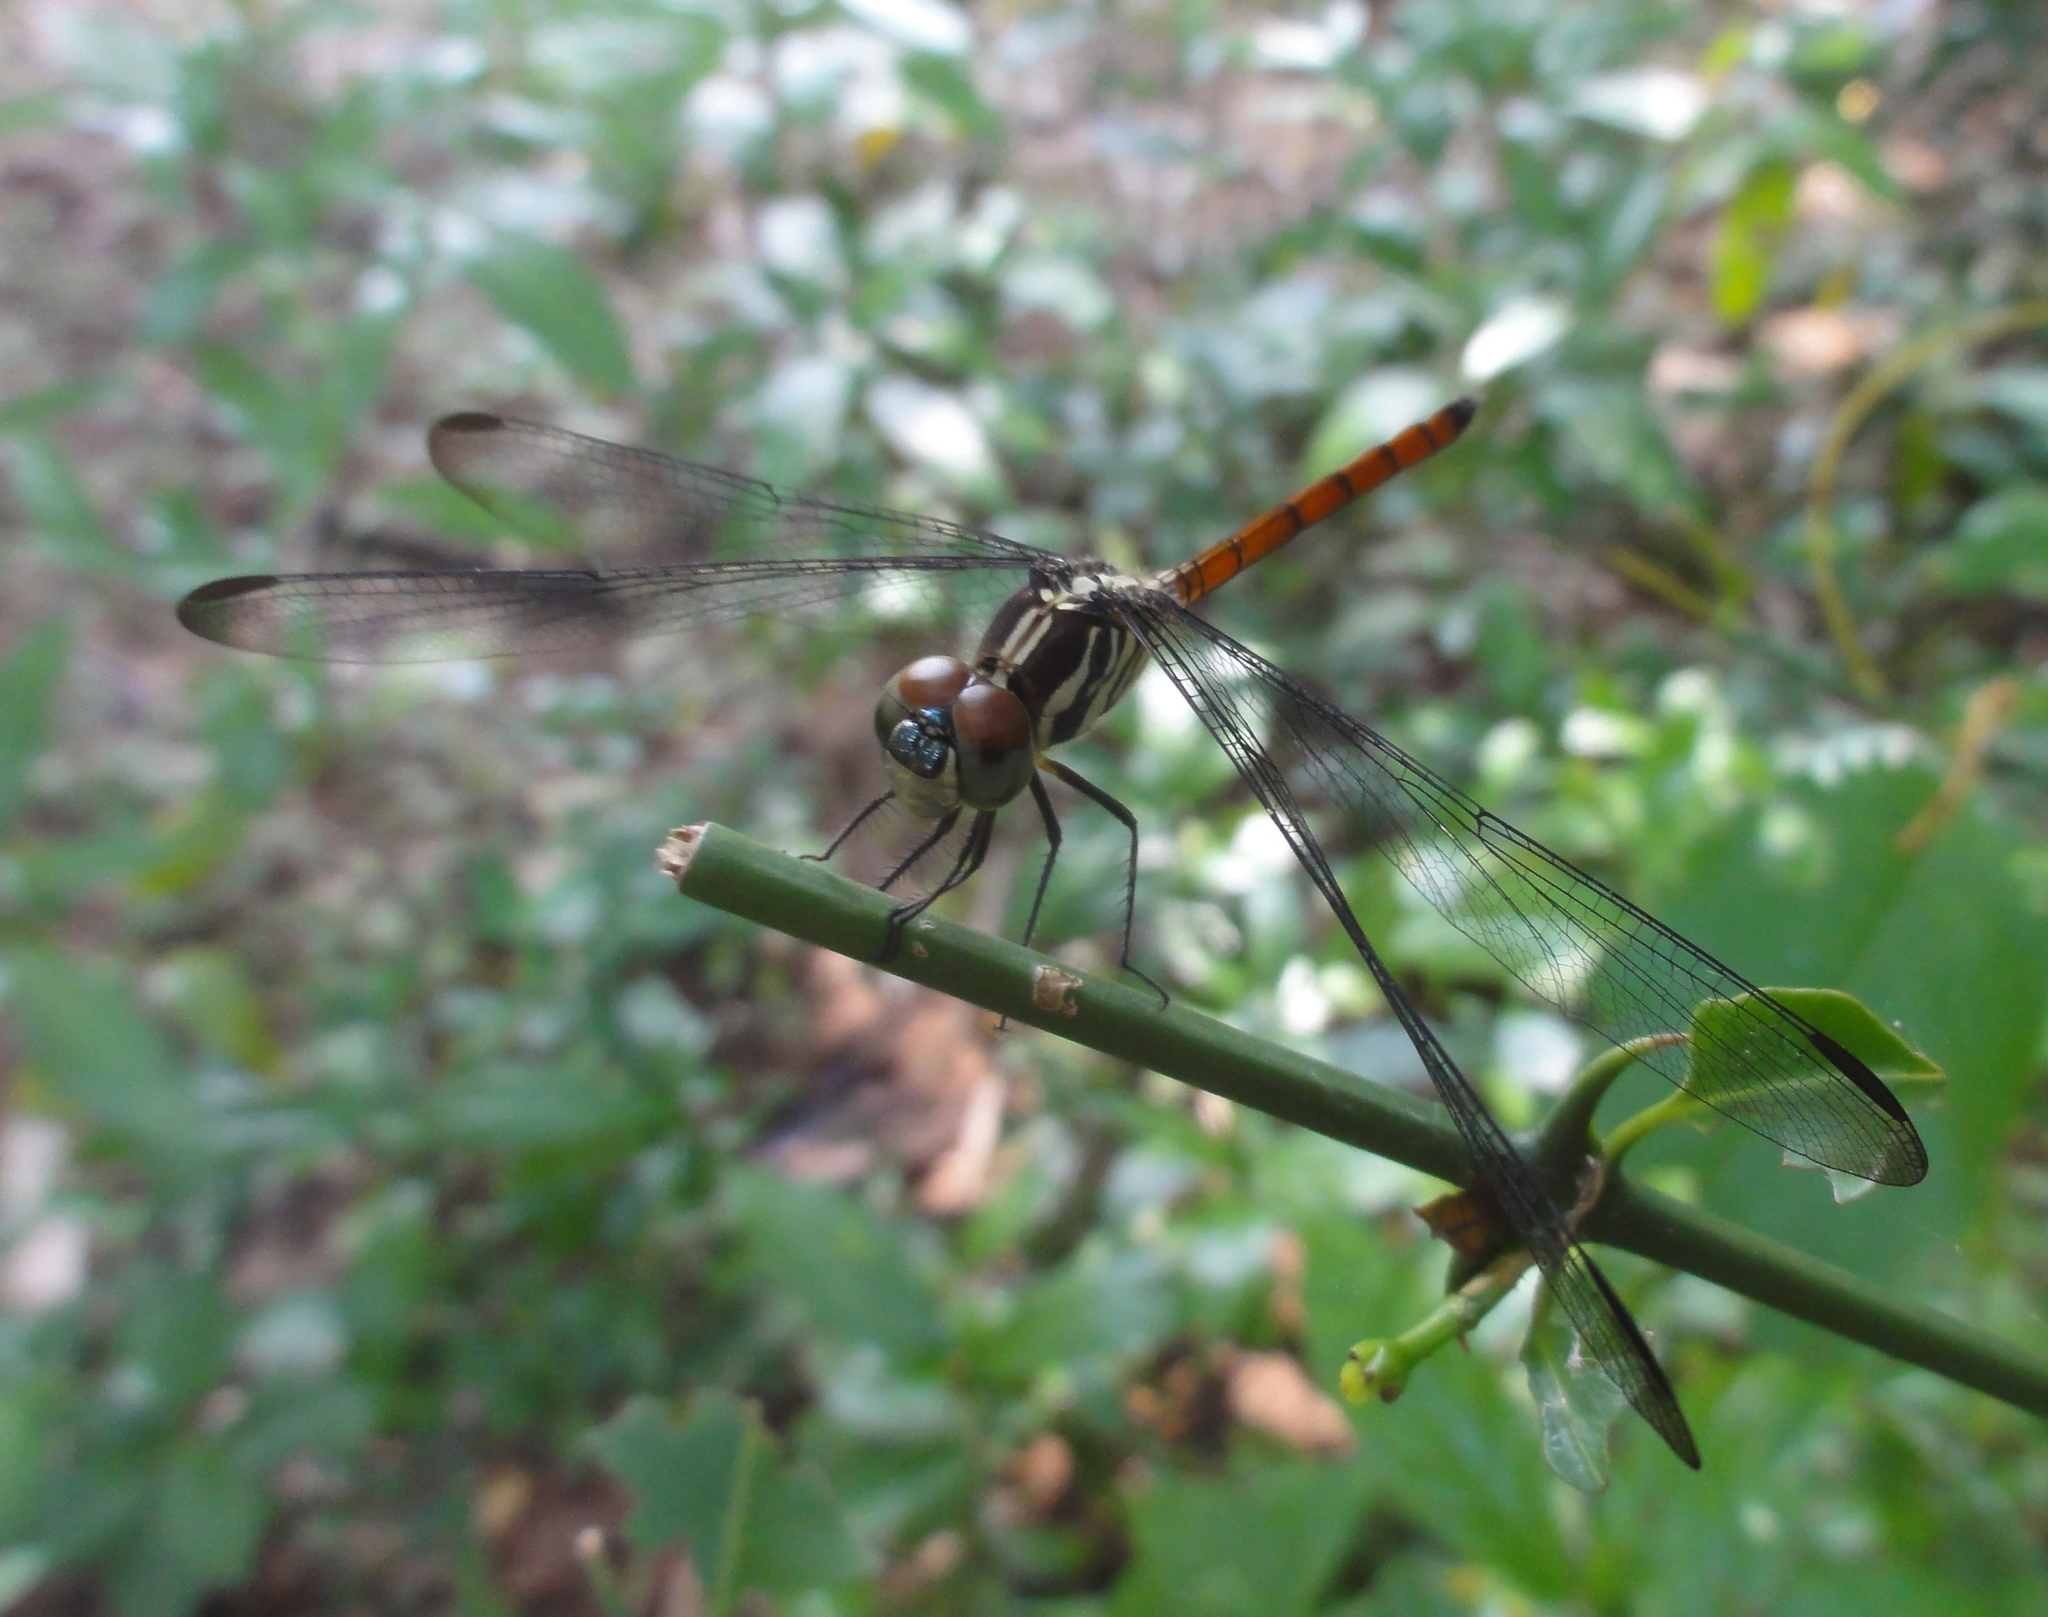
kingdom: Animalia
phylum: Arthropoda
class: Insecta
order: Odonata
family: Libellulidae
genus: Lathrecista
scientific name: Lathrecista asiatica
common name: Scarlet grenadier
